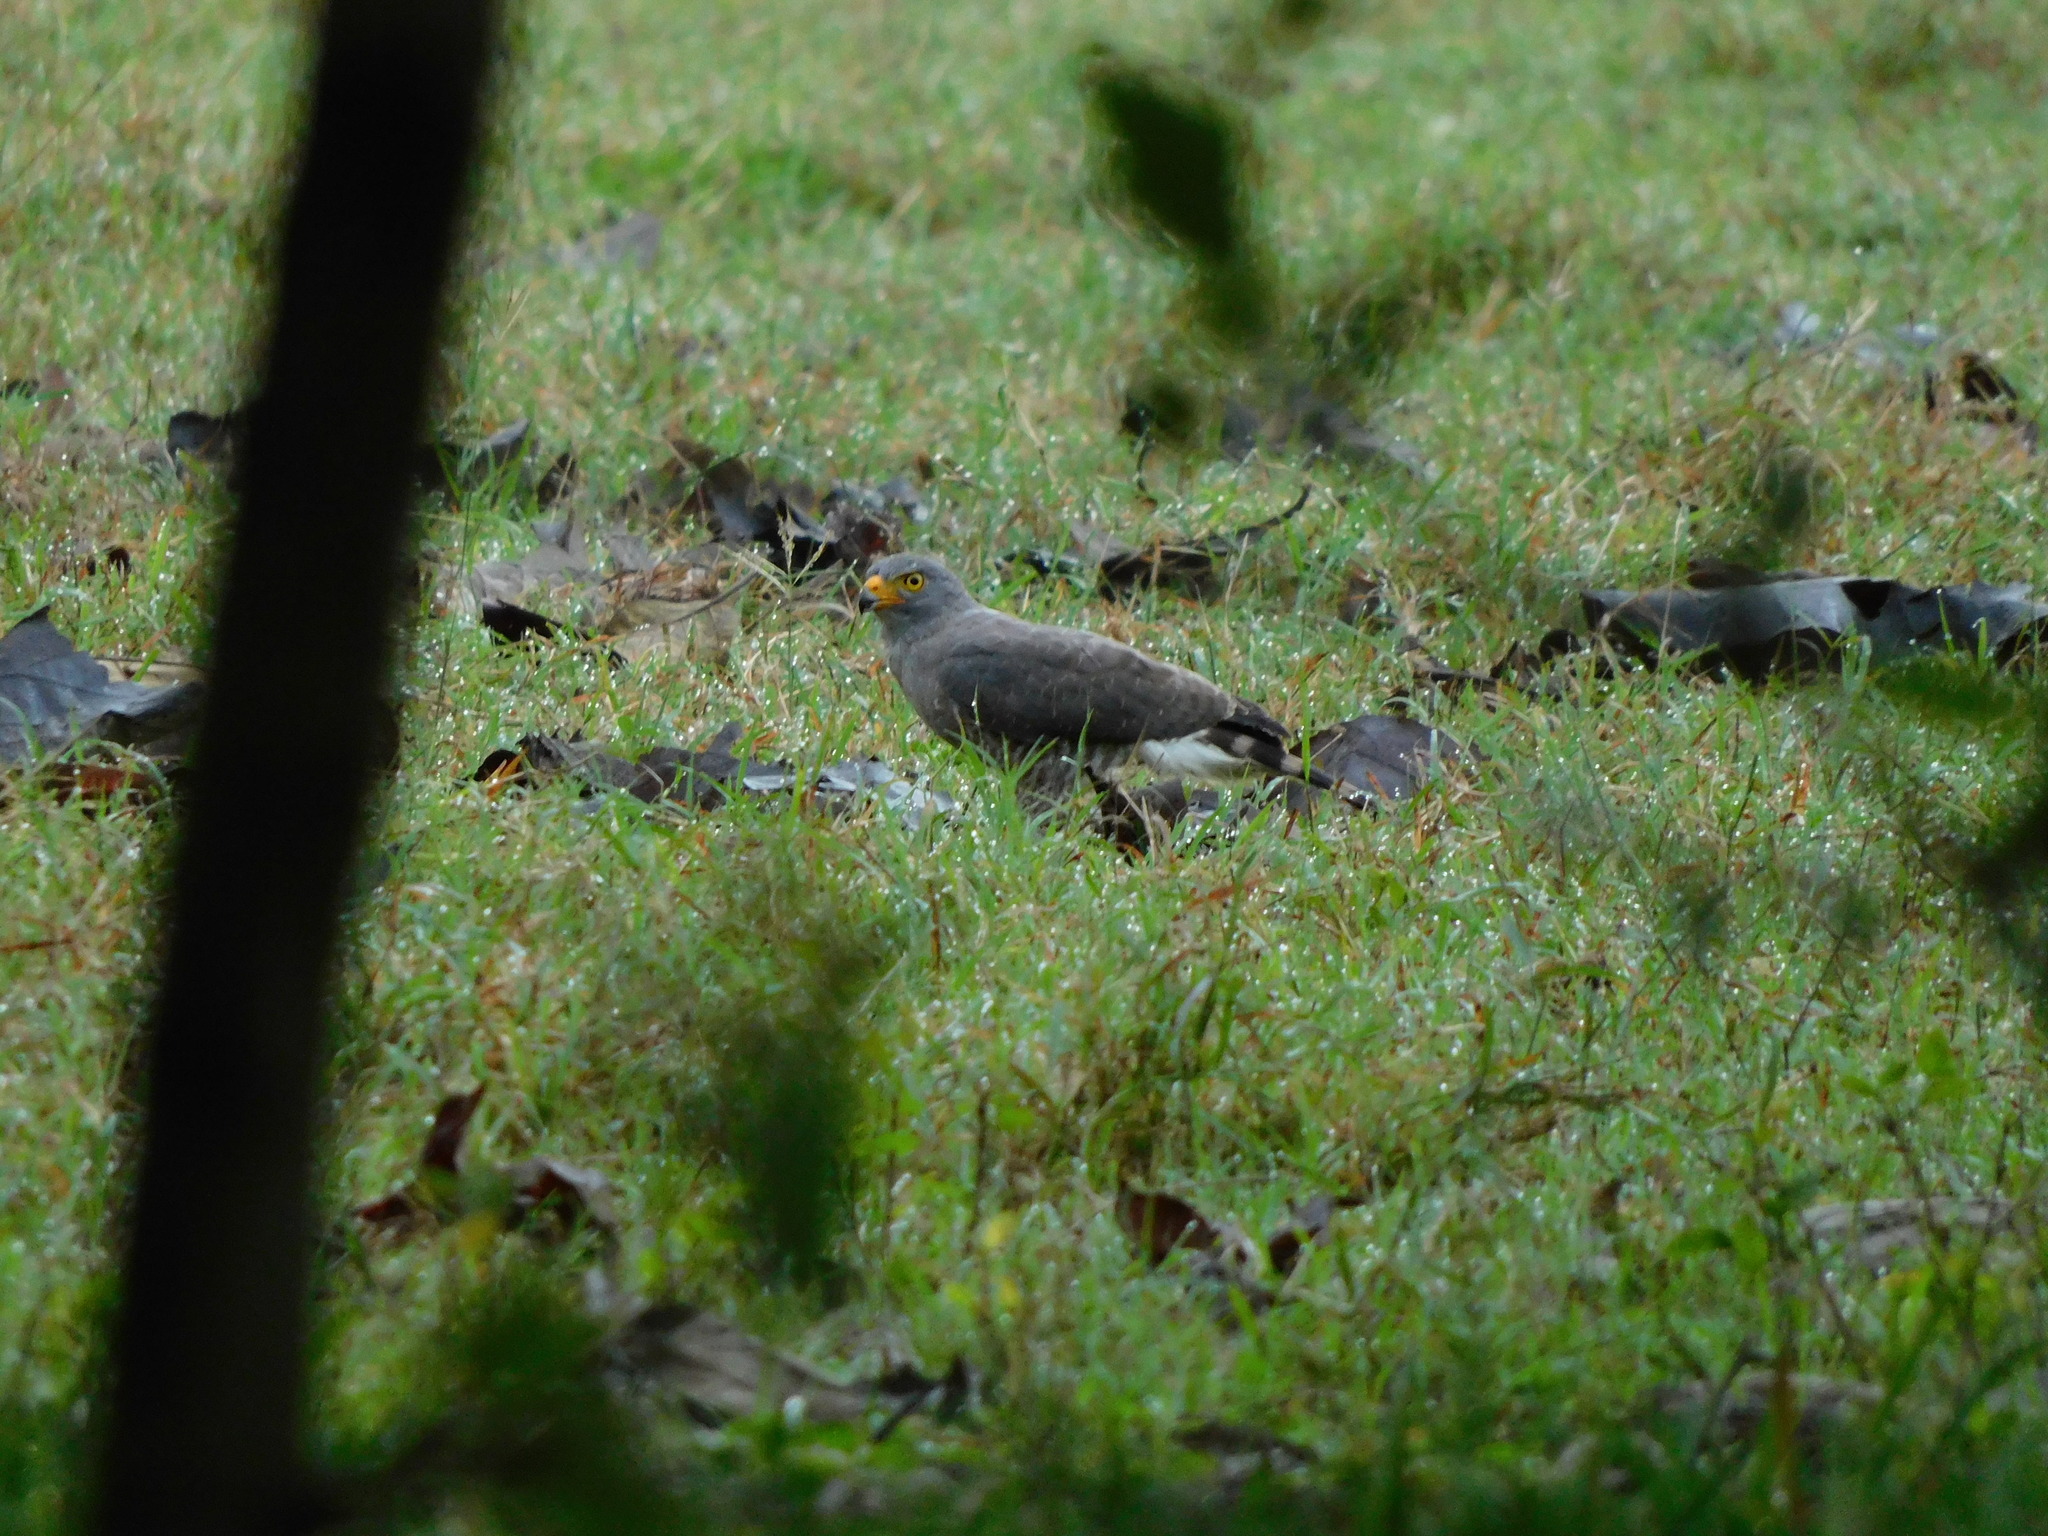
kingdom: Animalia
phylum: Chordata
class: Aves
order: Accipitriformes
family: Accipitridae
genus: Rupornis
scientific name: Rupornis magnirostris
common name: Roadside hawk
